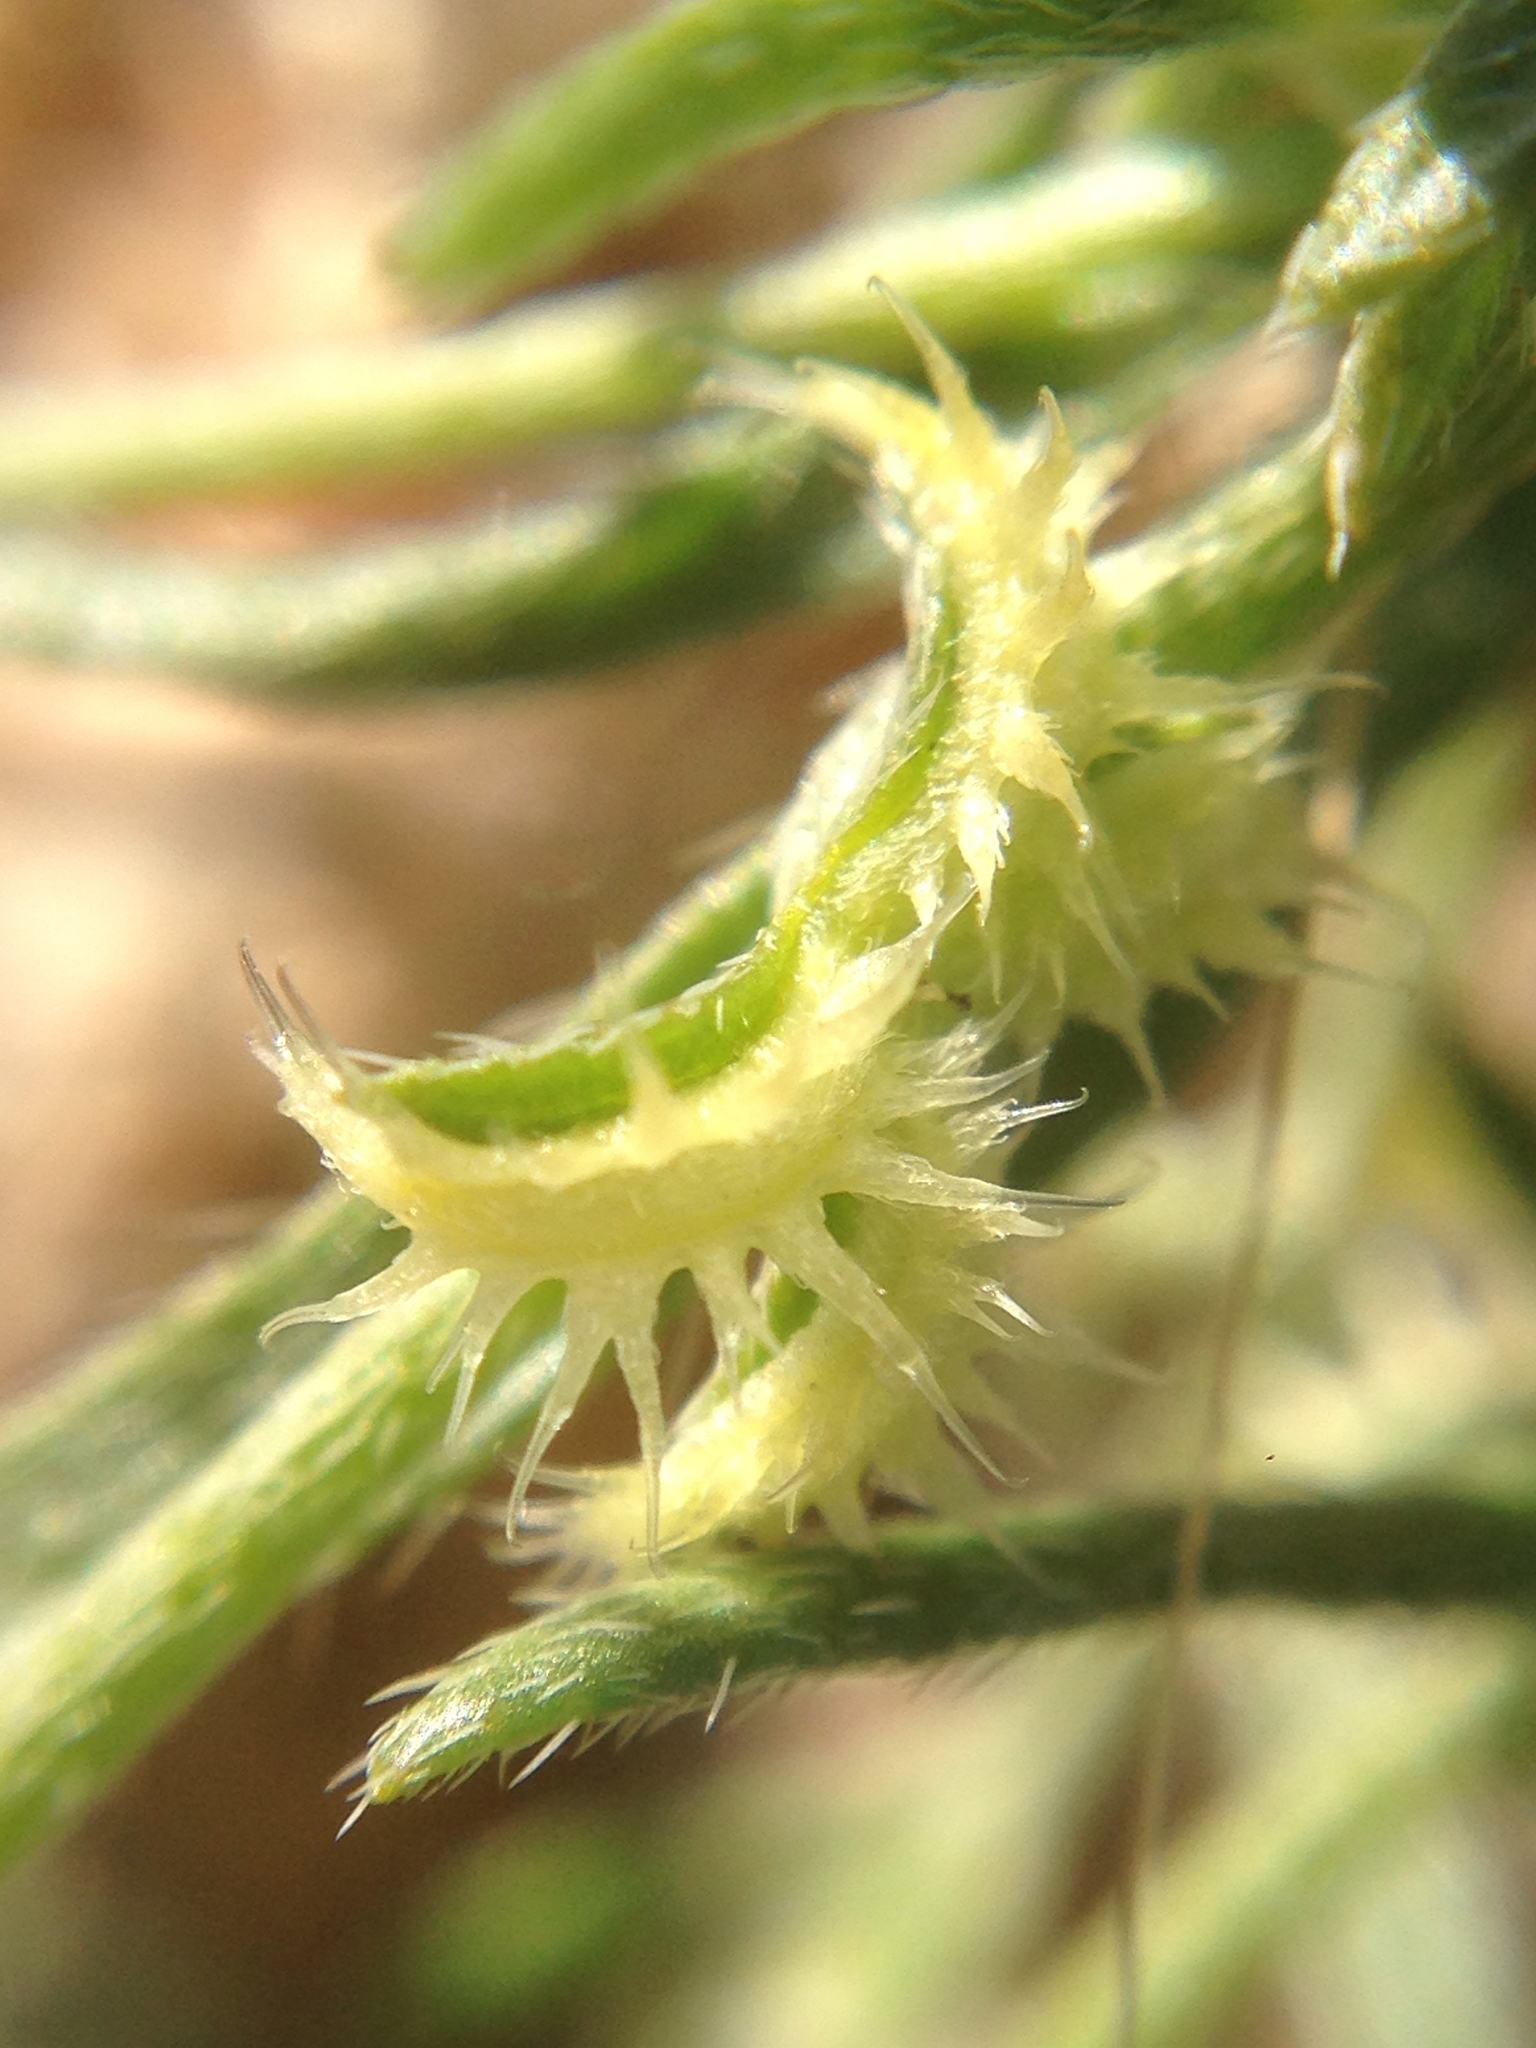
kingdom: Plantae
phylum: Tracheophyta
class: Magnoliopsida
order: Boraginales
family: Boraginaceae
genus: Pectocarya
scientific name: Pectocarya recurvata
